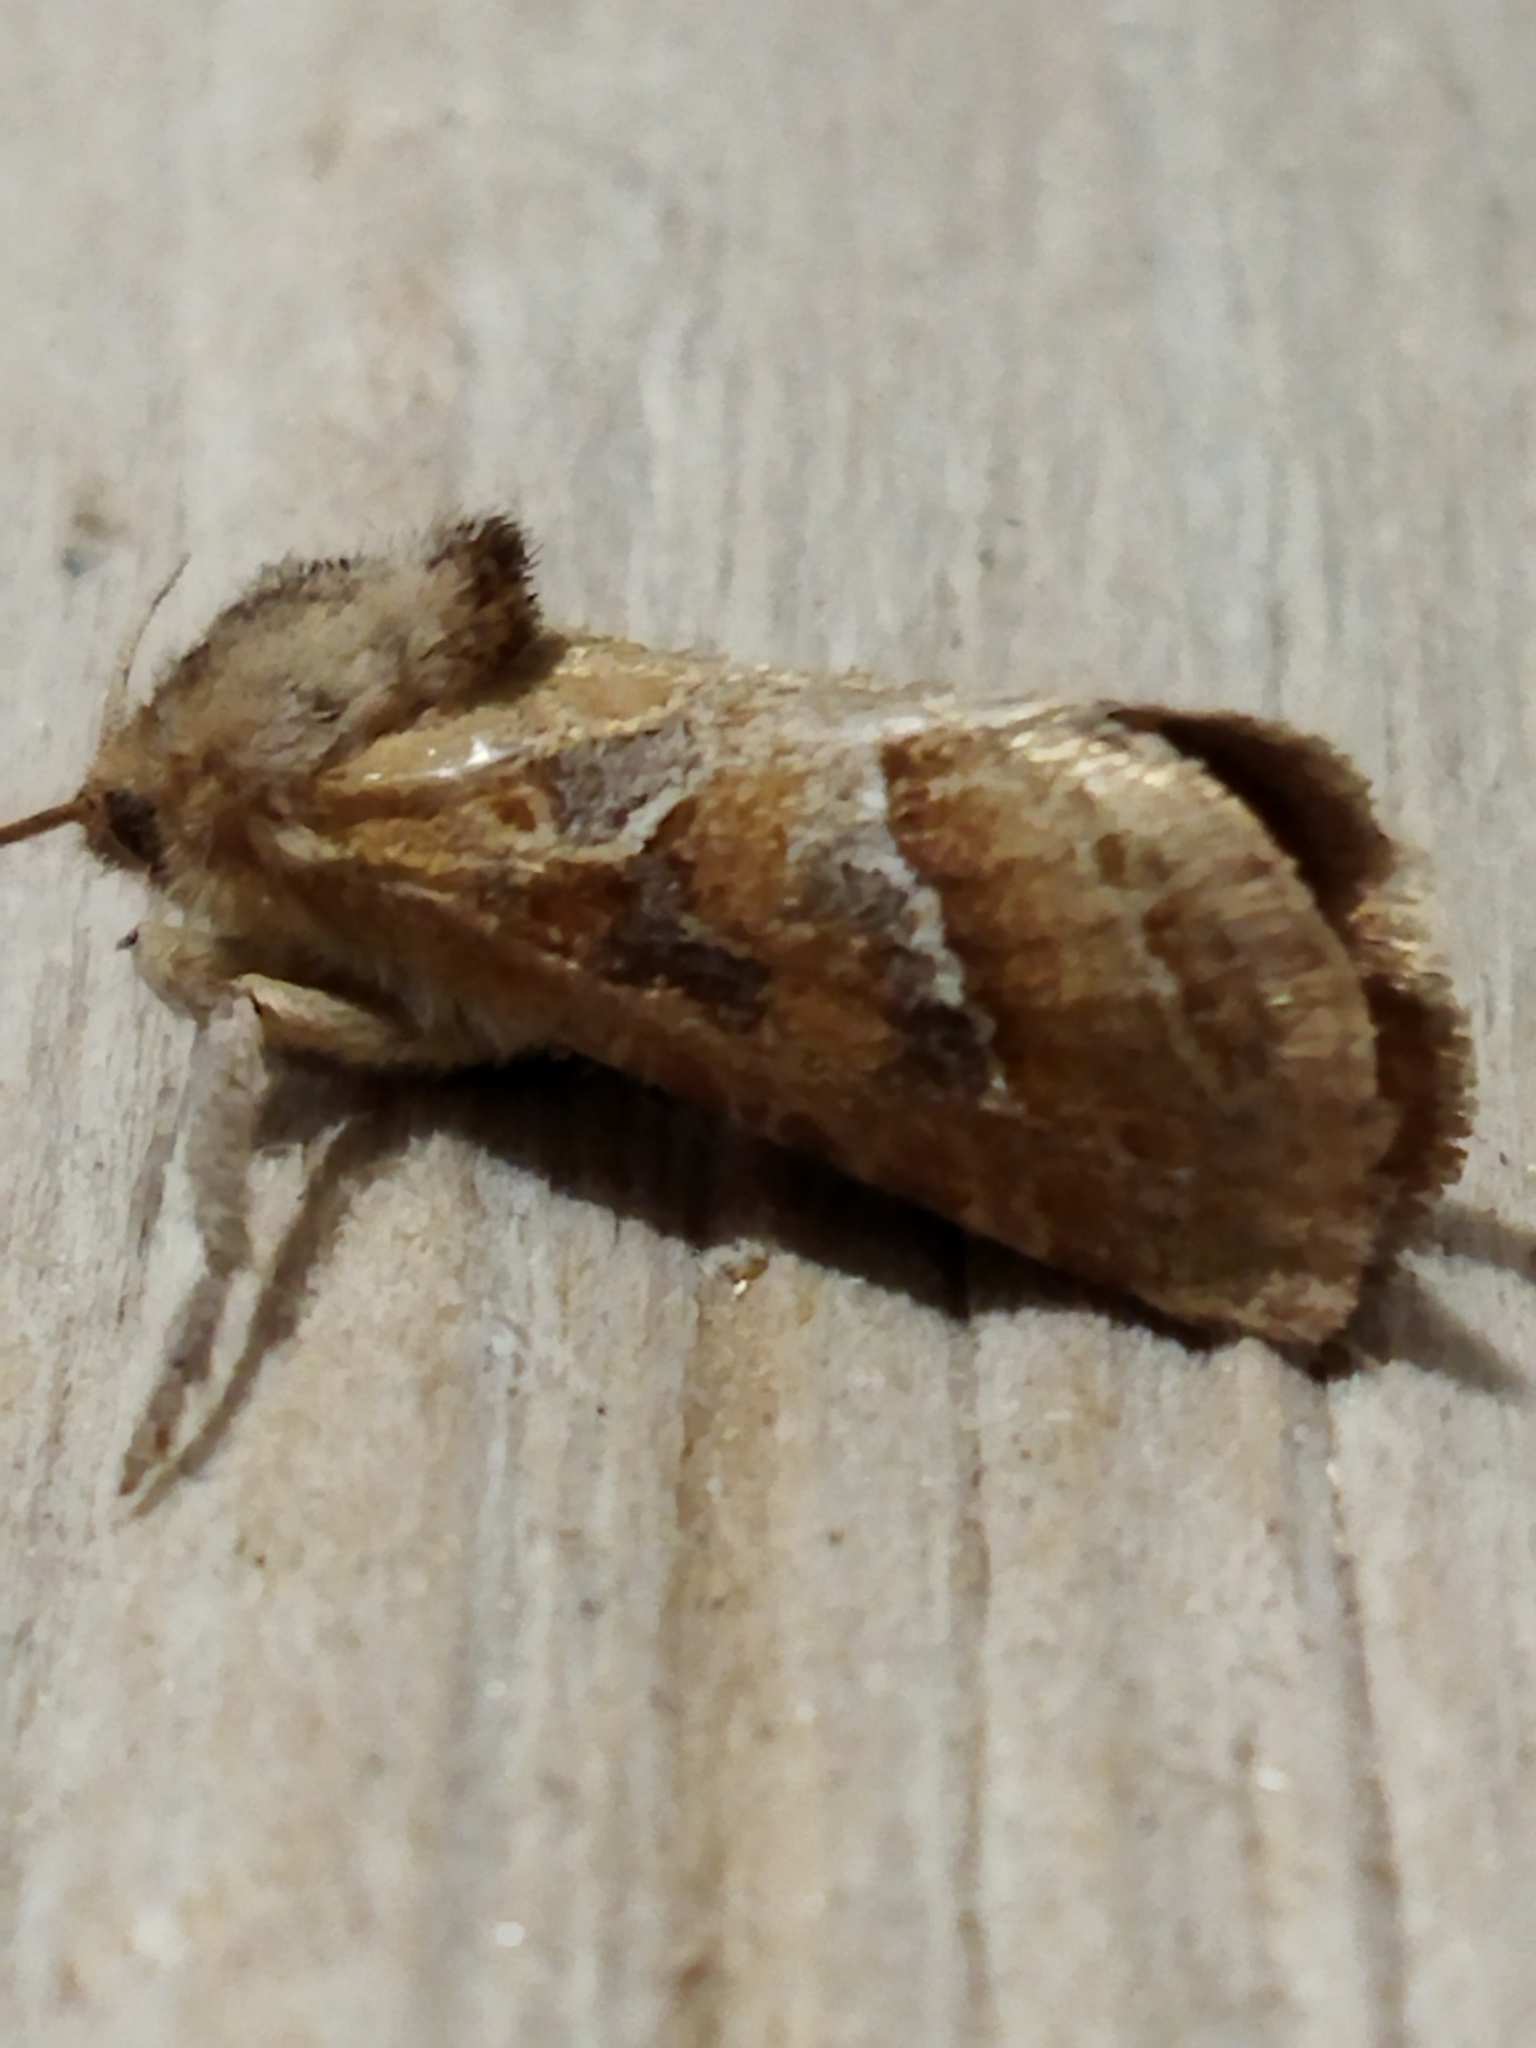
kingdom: Animalia
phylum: Arthropoda
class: Insecta
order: Lepidoptera
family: Hepialidae
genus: Triodia
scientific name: Triodia amasinus
